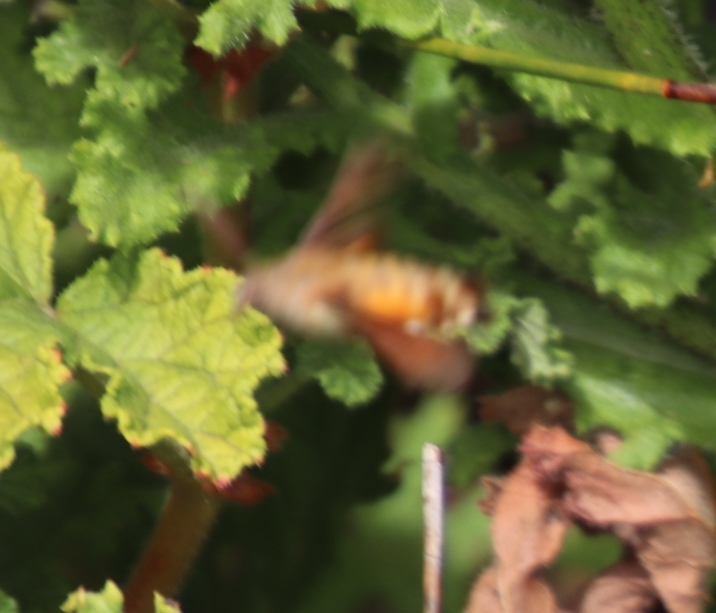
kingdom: Animalia
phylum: Arthropoda
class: Insecta
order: Lepidoptera
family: Sphingidae
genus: Macroglossum
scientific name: Macroglossum trochilus
